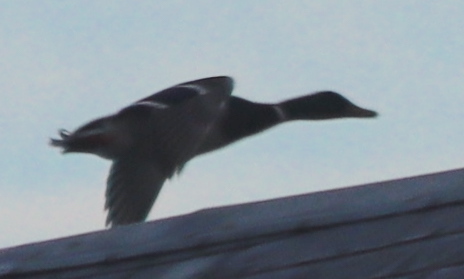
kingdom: Animalia
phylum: Chordata
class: Aves
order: Anseriformes
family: Anatidae
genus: Anas
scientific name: Anas platyrhynchos
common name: Mallard
